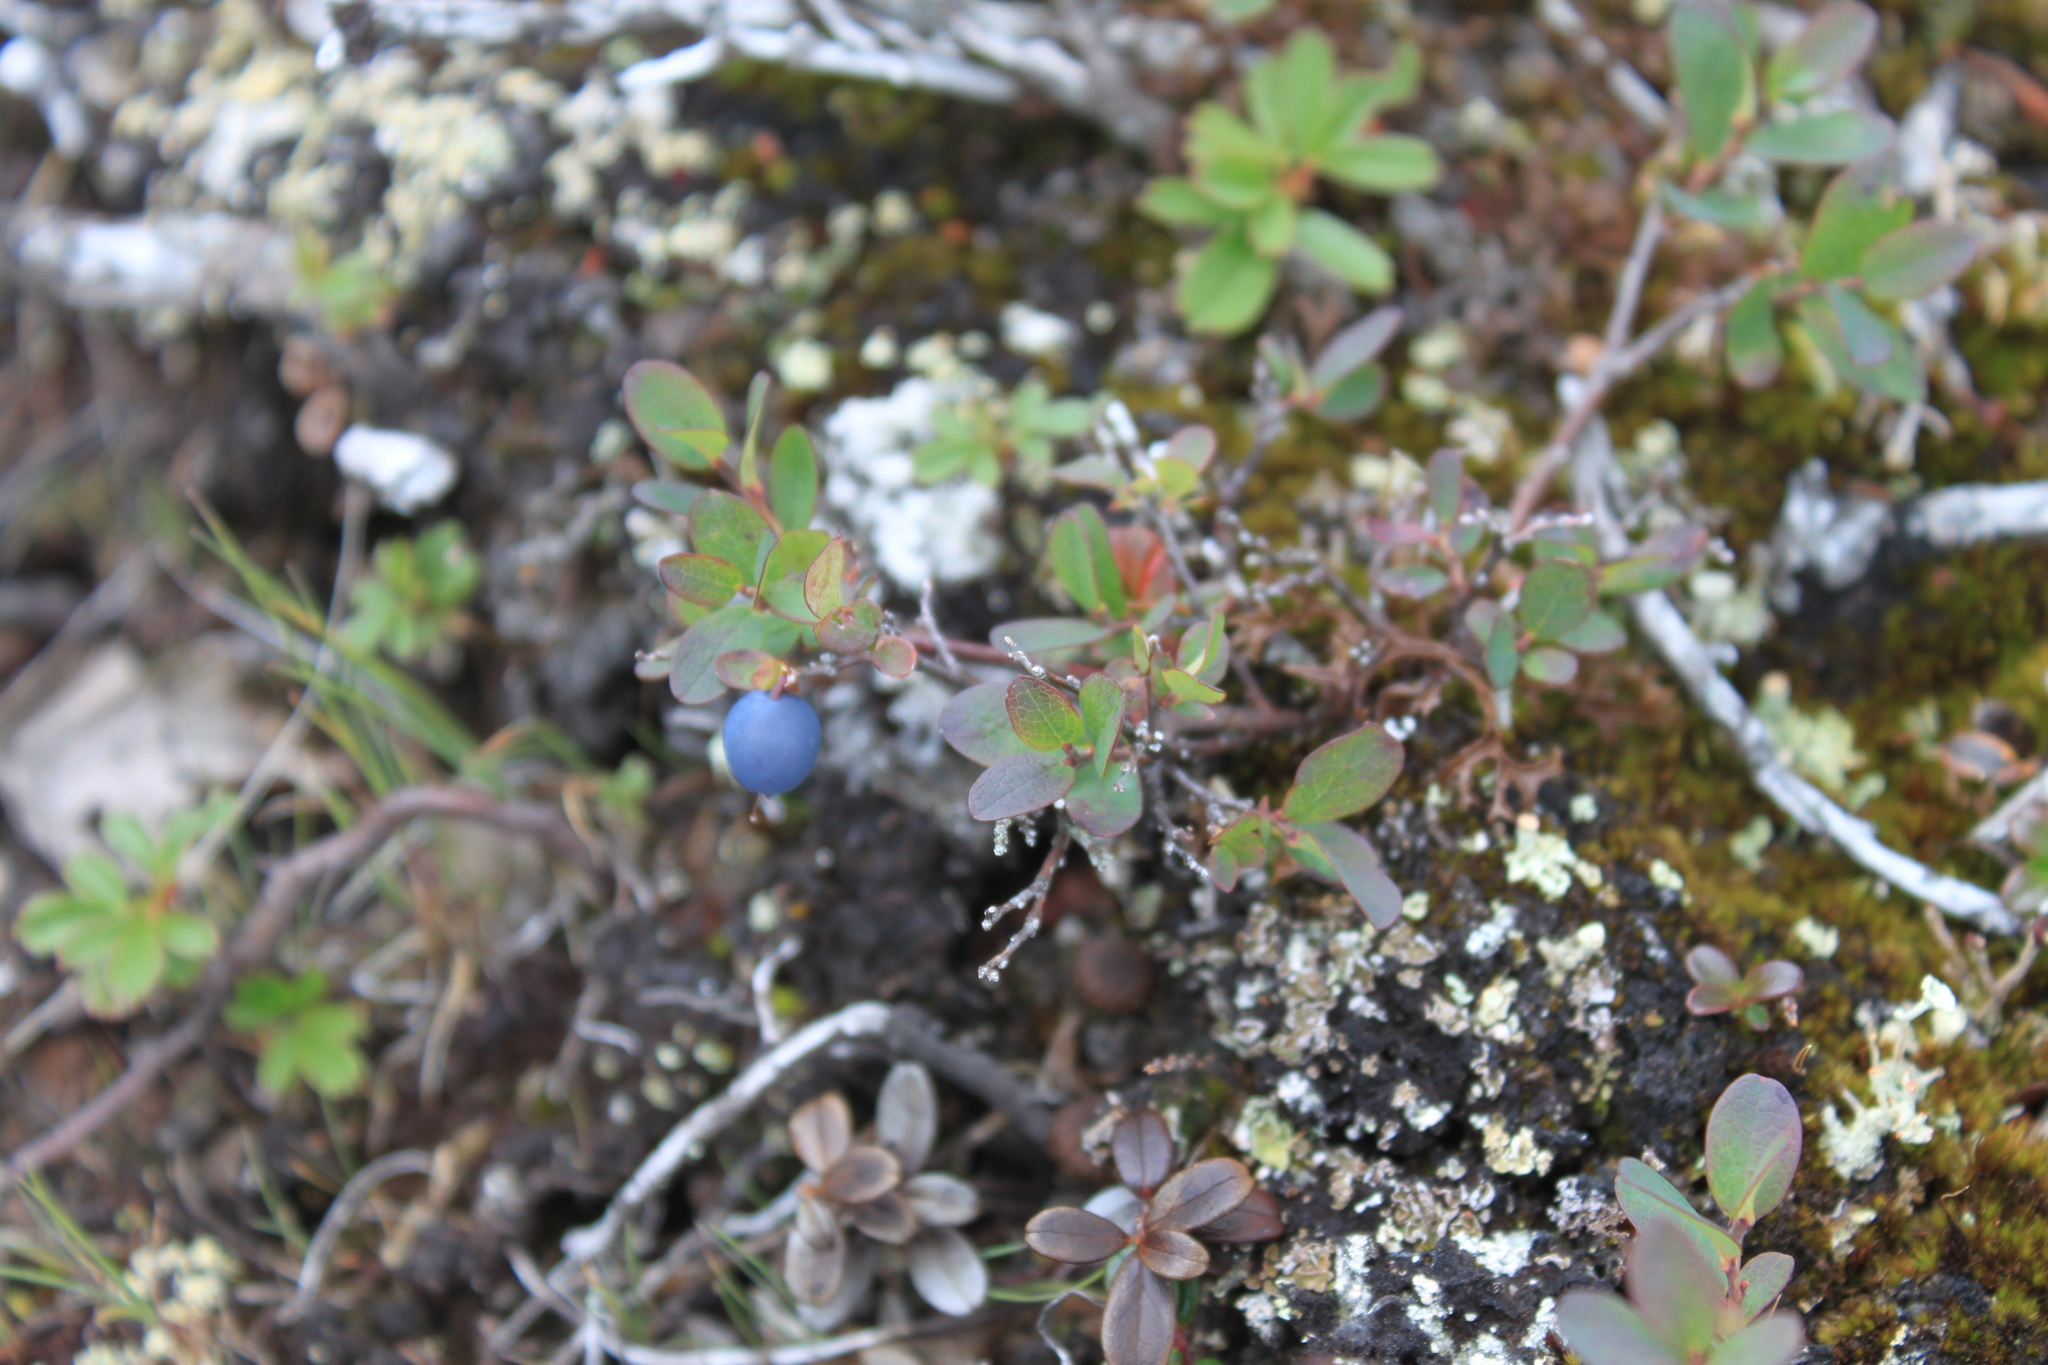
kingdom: Plantae
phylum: Tracheophyta
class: Magnoliopsida
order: Ericales
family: Ericaceae
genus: Vaccinium
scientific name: Vaccinium uliginosum
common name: Bog bilberry
